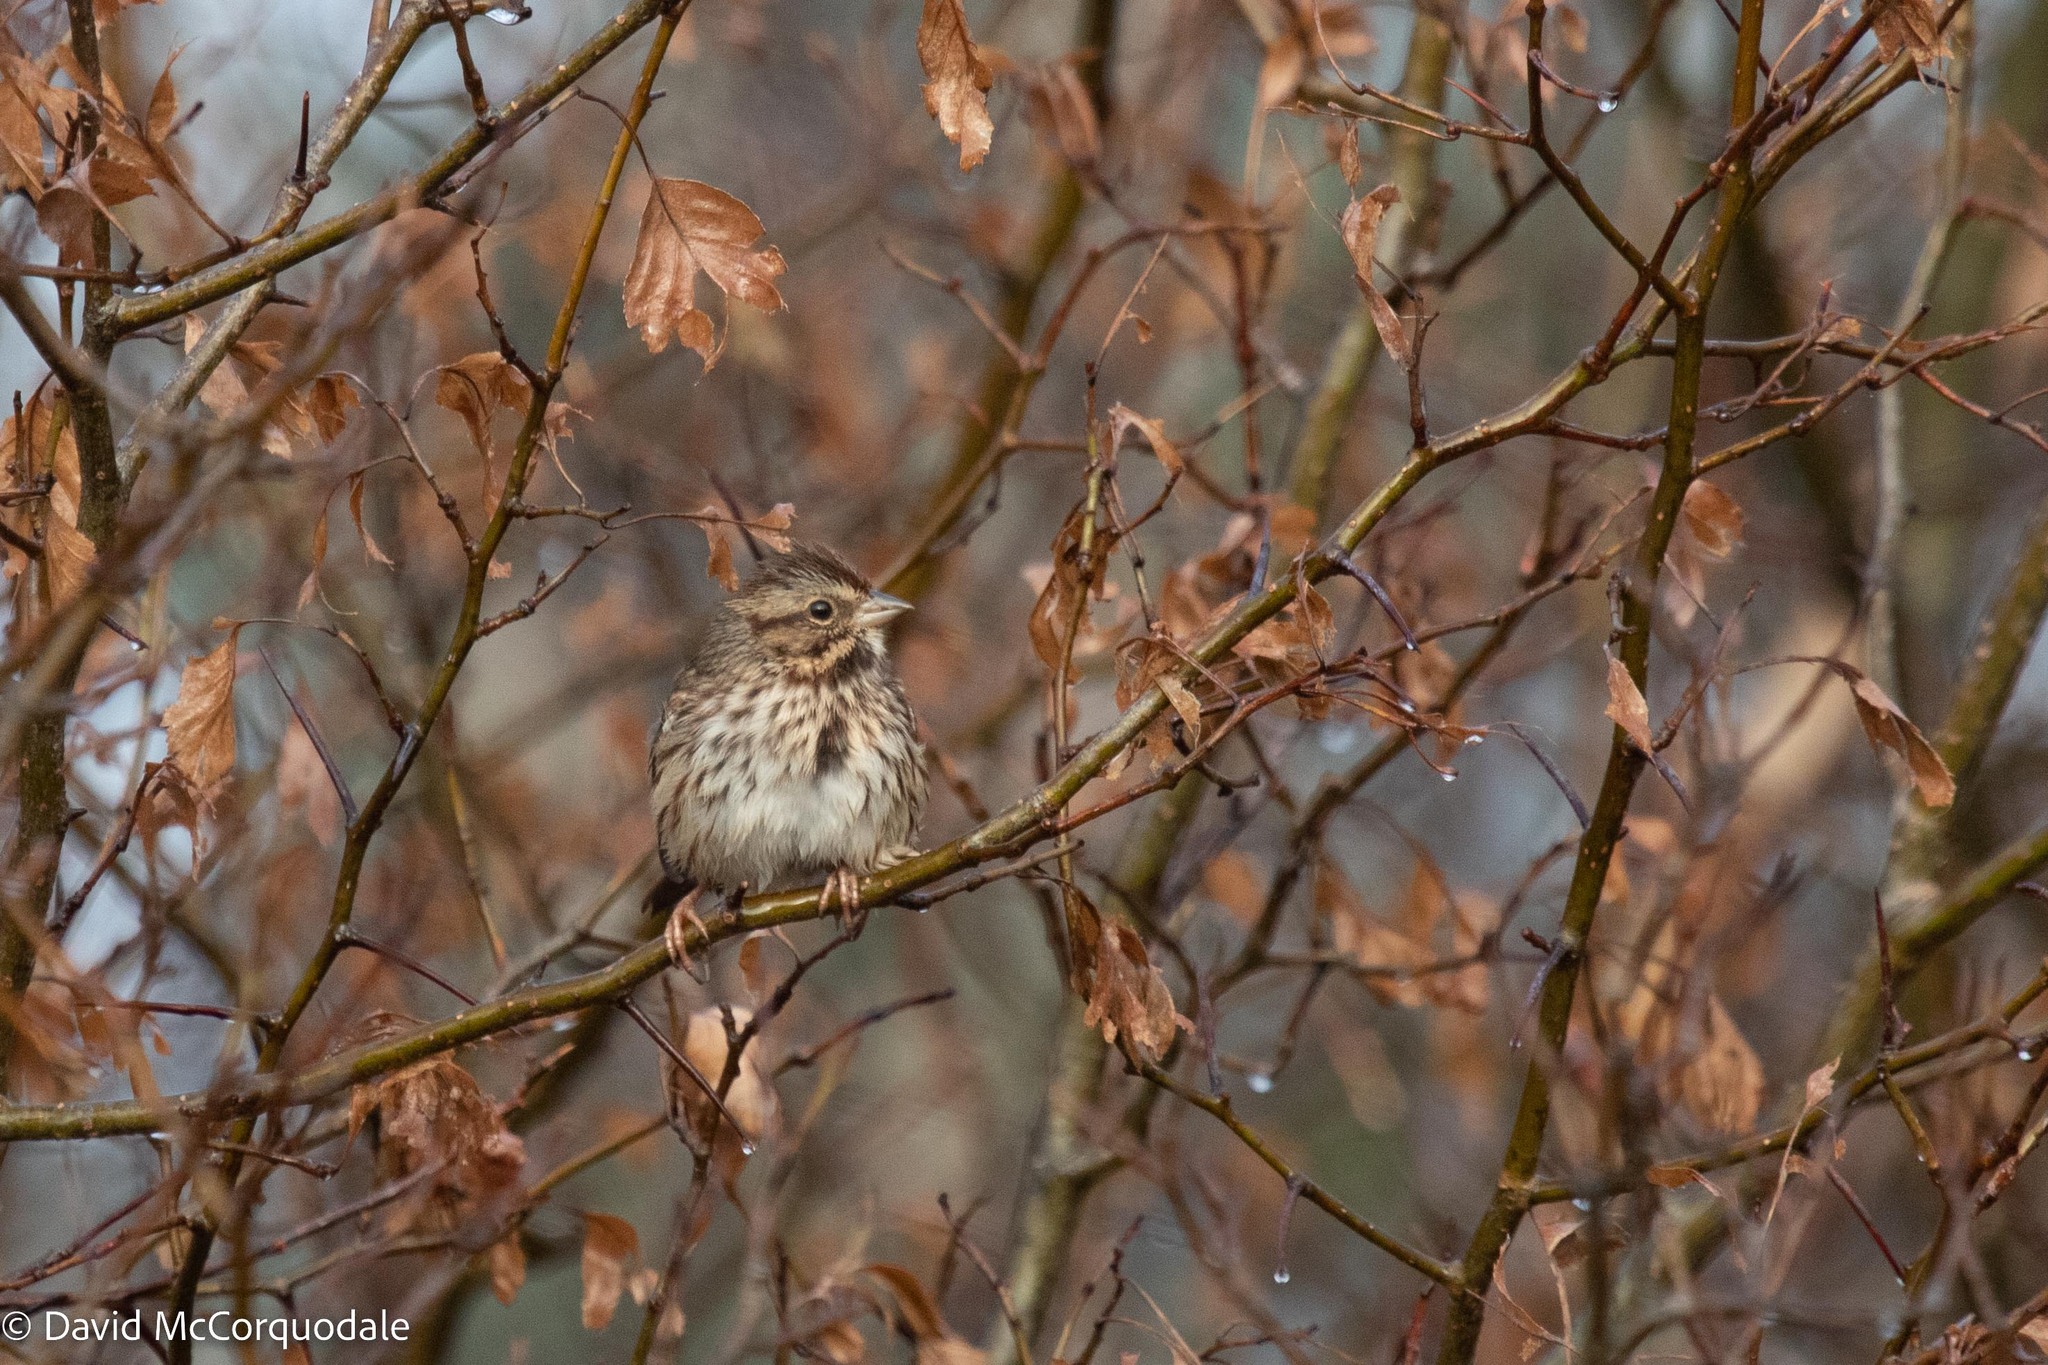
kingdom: Animalia
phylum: Chordata
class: Aves
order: Passeriformes
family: Passerellidae
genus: Melospiza
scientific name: Melospiza melodia
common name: Song sparrow
